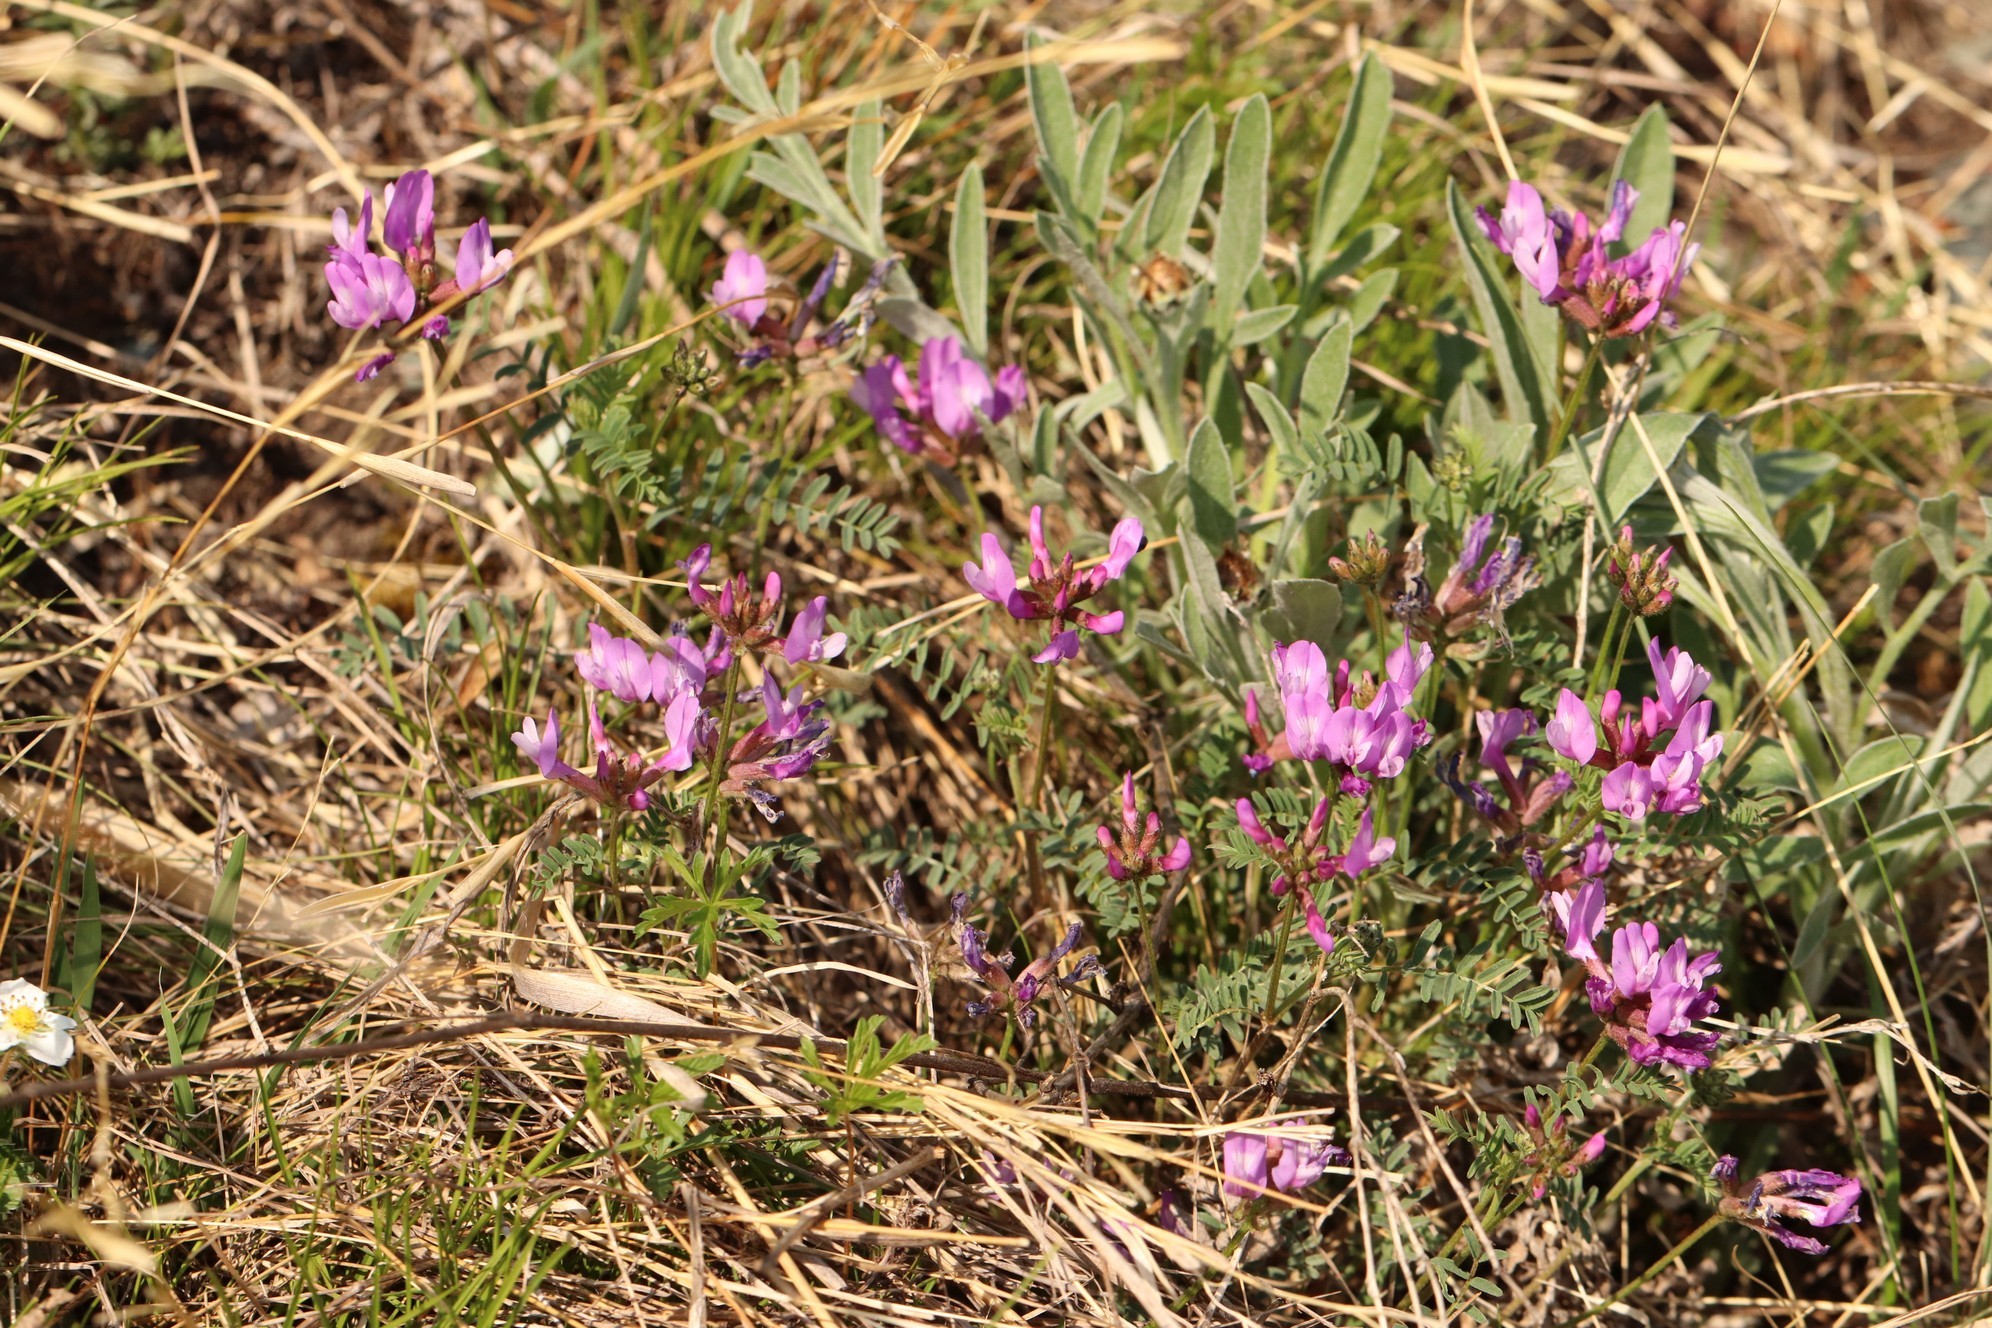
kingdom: Plantae
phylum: Tracheophyta
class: Magnoliopsida
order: Fabales
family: Fabaceae
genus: Astragalus
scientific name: Astragalus ceratoides
